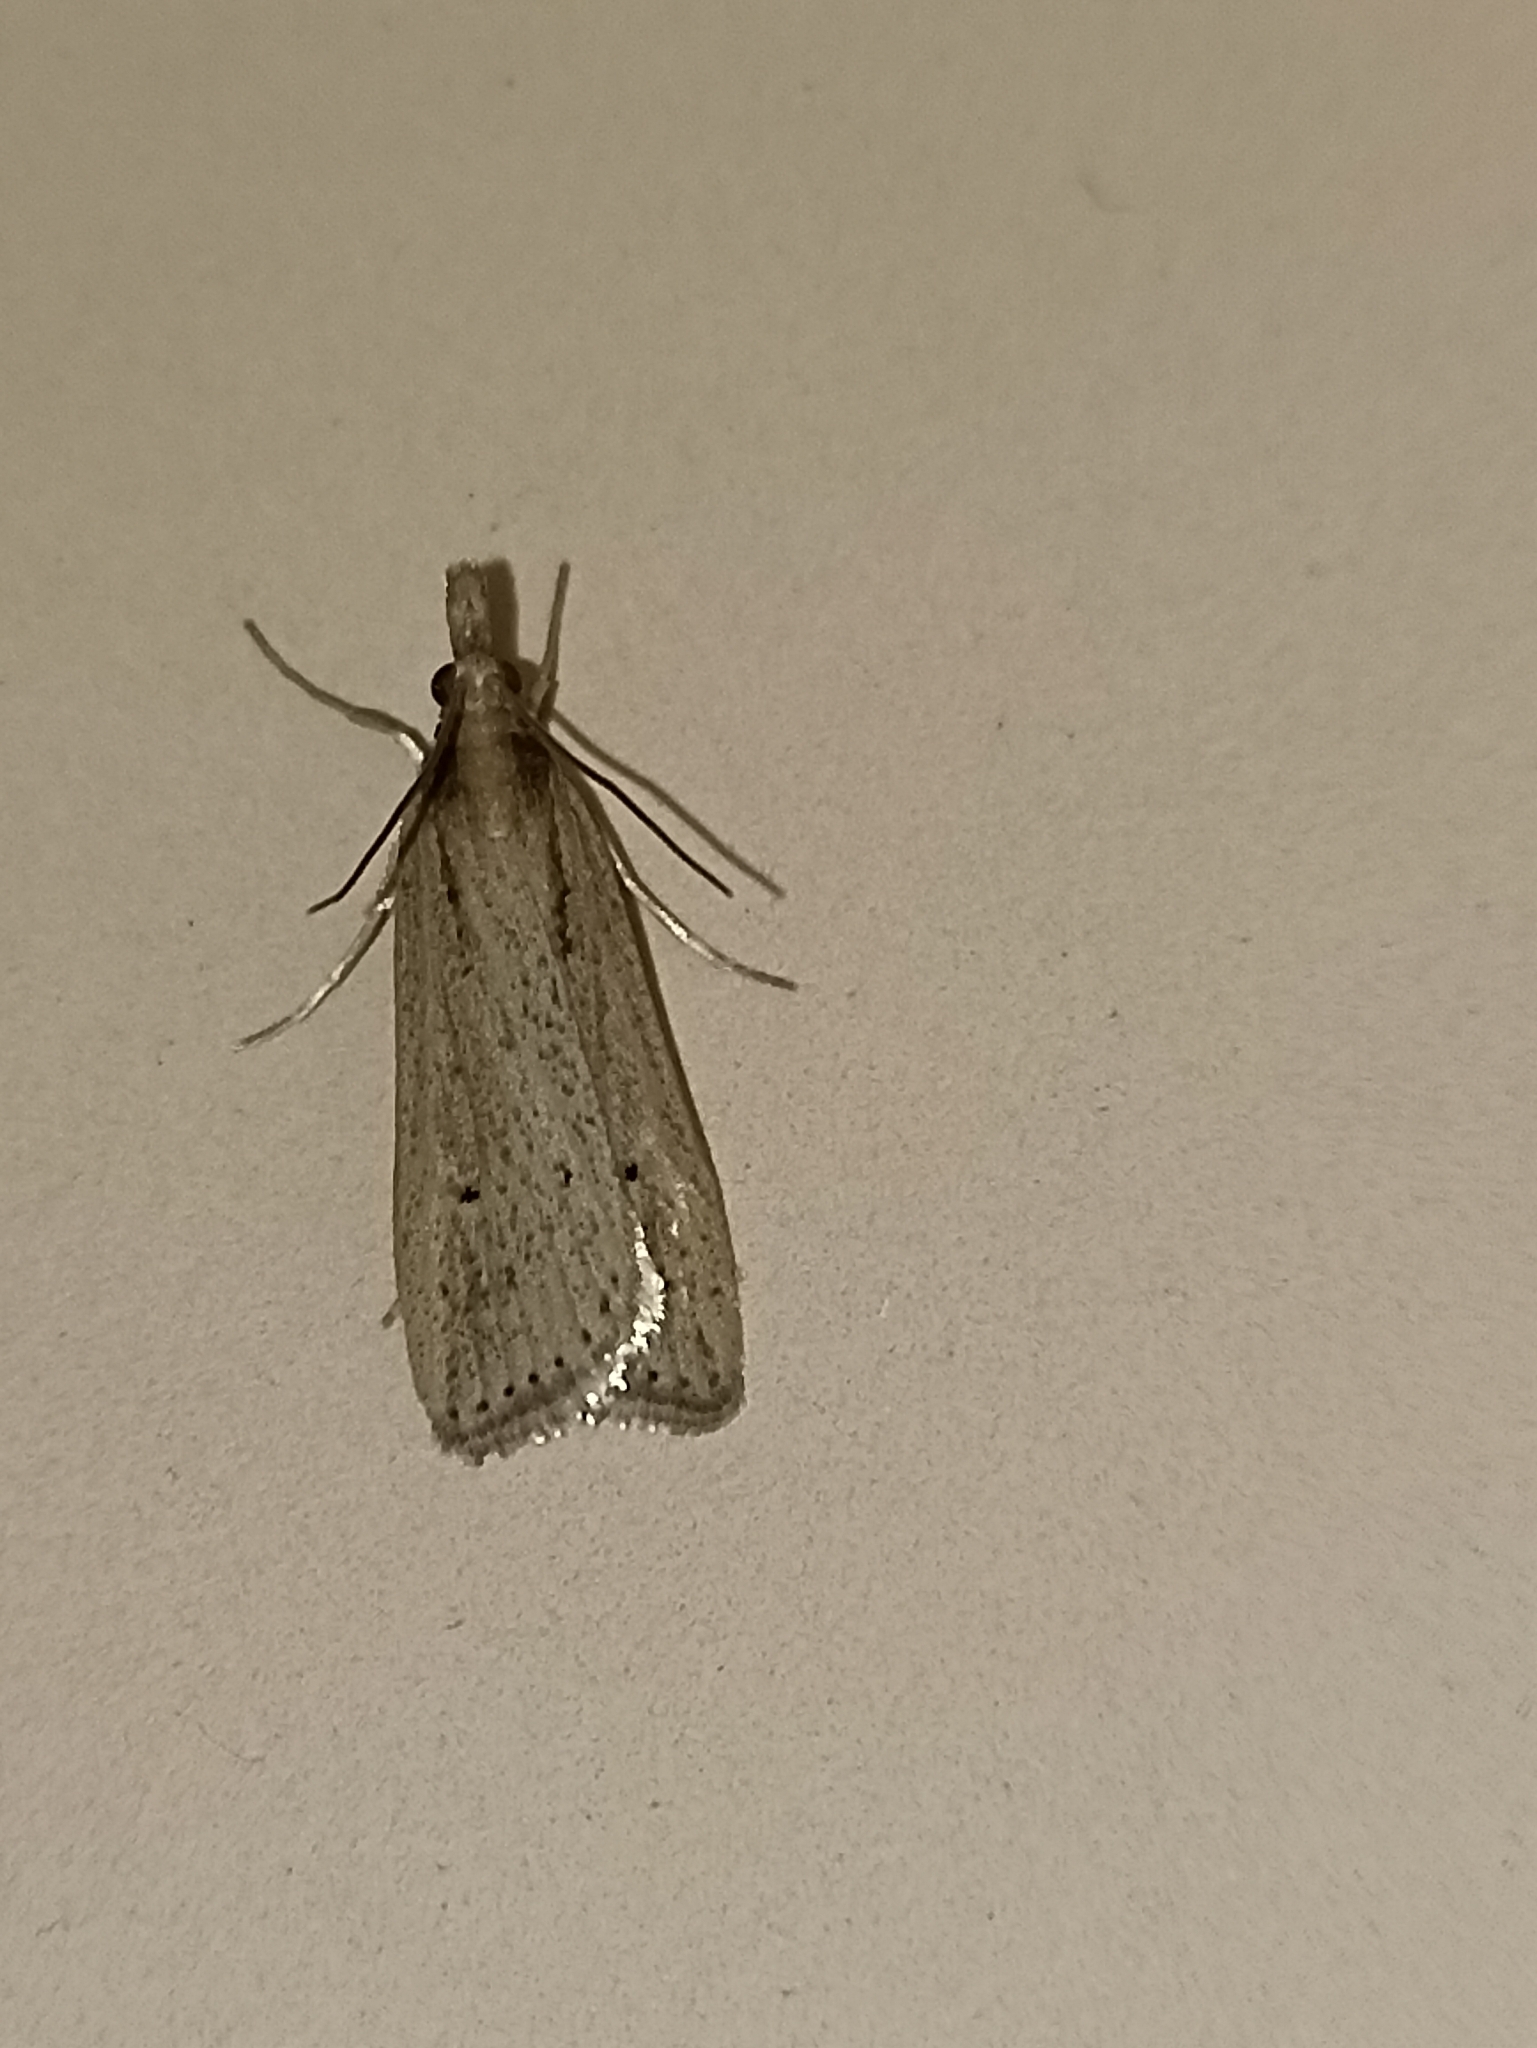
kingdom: Animalia
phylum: Arthropoda
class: Insecta
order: Lepidoptera
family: Crambidae
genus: Eudonia
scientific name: Eudonia sabulosella
